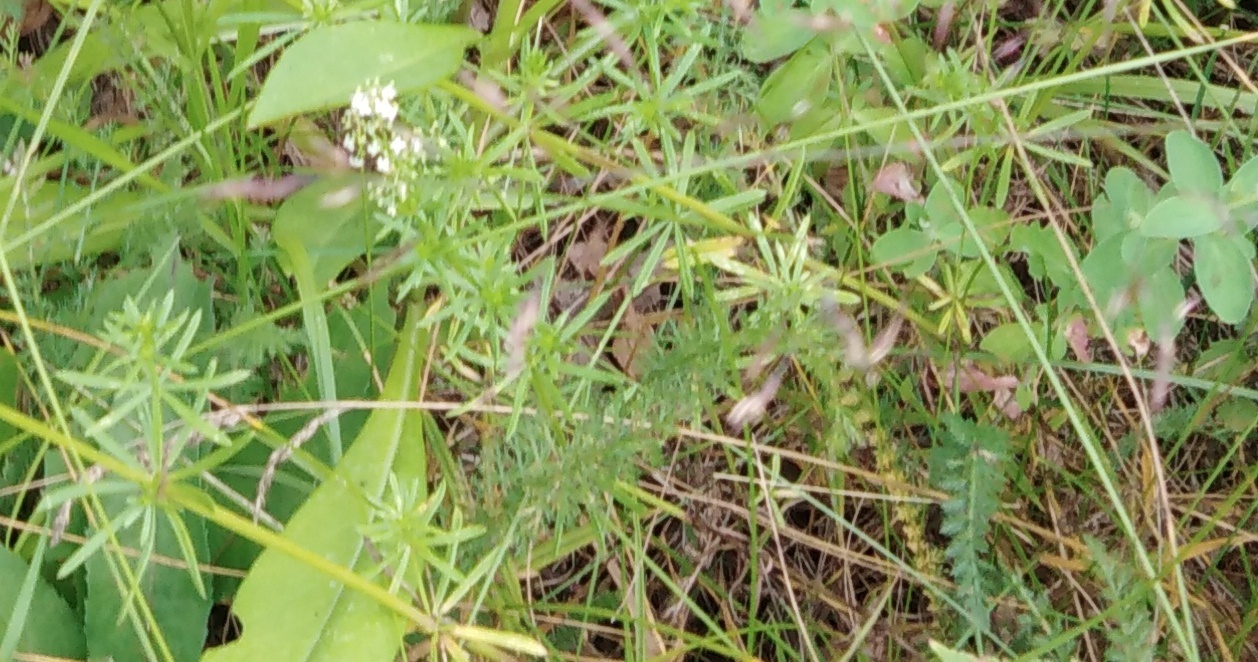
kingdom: Plantae
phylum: Tracheophyta
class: Magnoliopsida
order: Gentianales
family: Rubiaceae
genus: Galium
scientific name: Galium mollugo
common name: Hedge bedstraw
